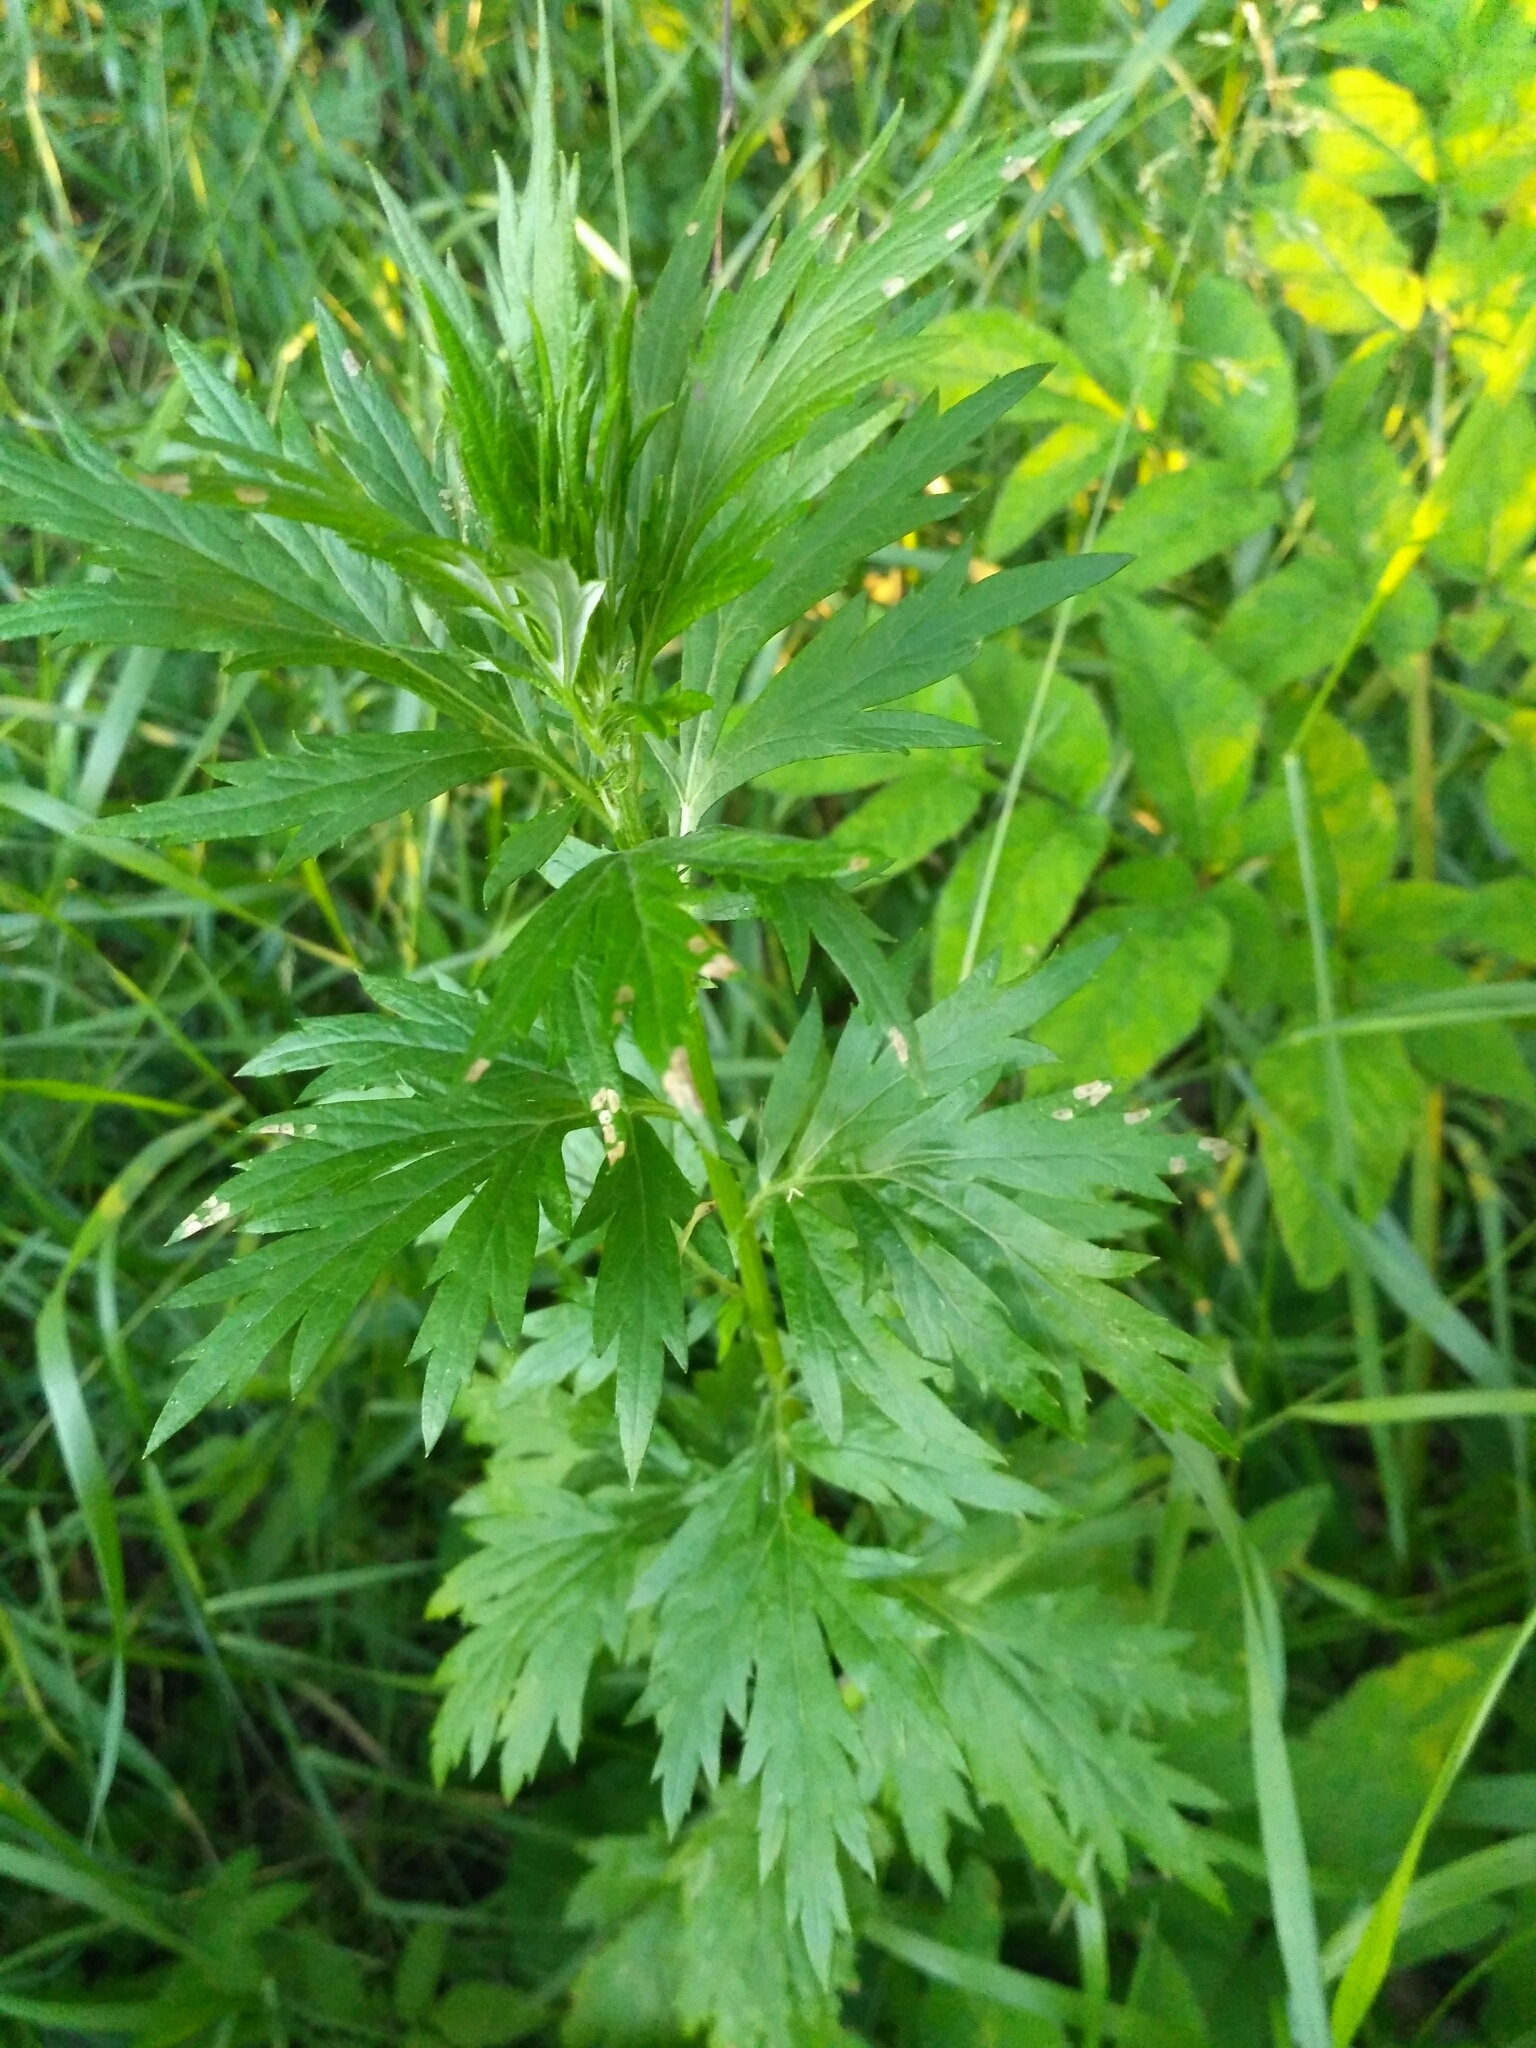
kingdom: Plantae
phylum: Tracheophyta
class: Magnoliopsida
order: Asterales
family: Asteraceae
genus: Artemisia
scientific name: Artemisia vulgaris
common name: Mugwort
